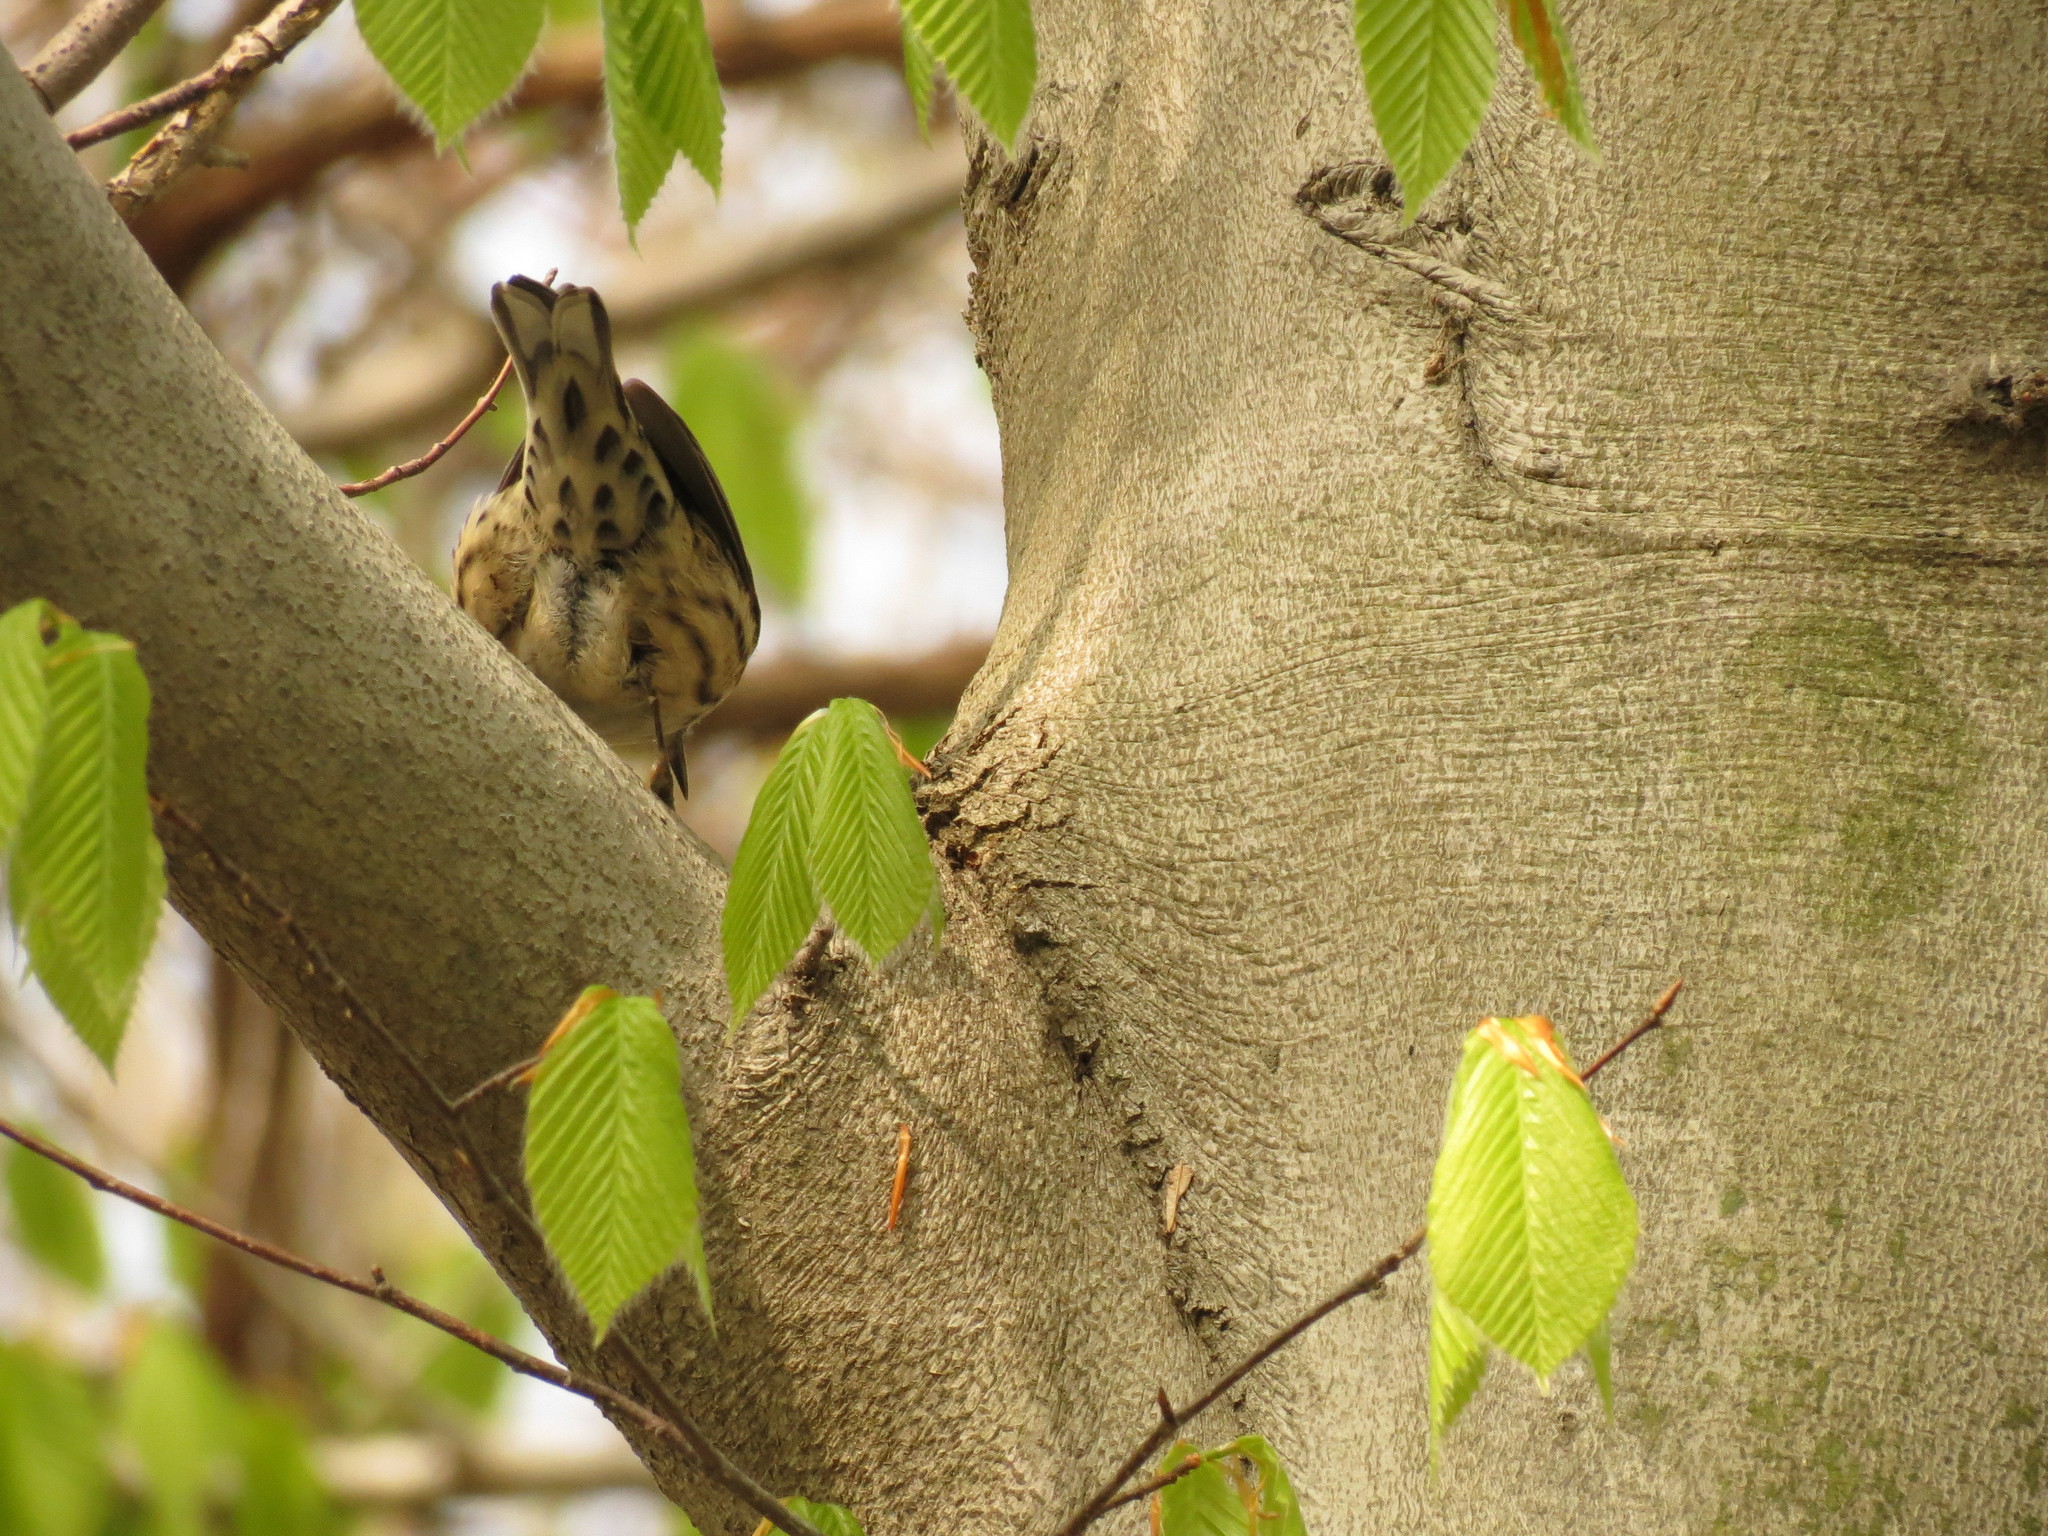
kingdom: Animalia
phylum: Chordata
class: Aves
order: Passeriformes
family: Parulidae
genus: Mniotilta
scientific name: Mniotilta varia
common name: Black-and-white warbler
